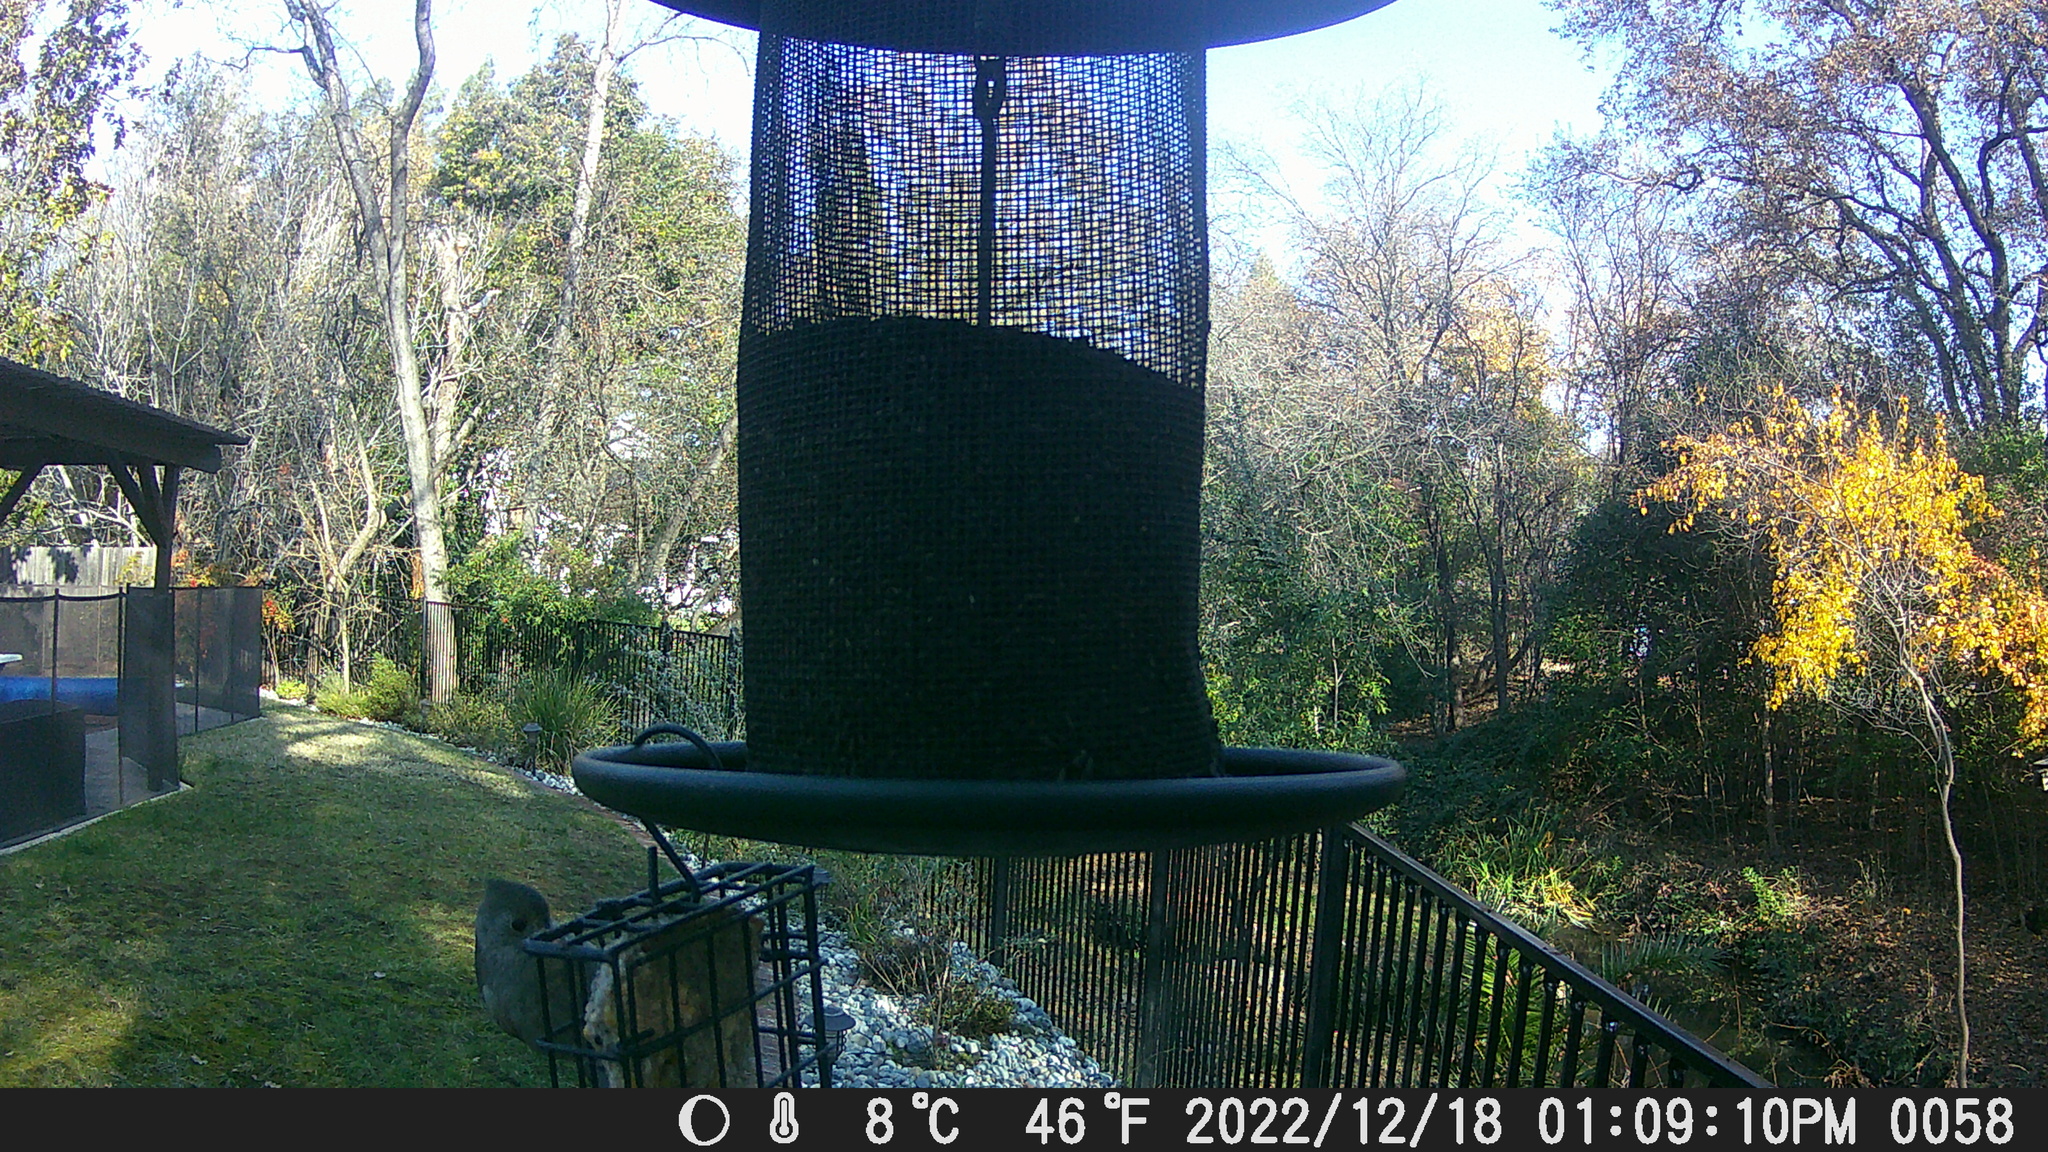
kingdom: Animalia
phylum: Chordata
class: Aves
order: Passeriformes
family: Paridae
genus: Baeolophus
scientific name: Baeolophus inornatus
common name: Oak titmouse
